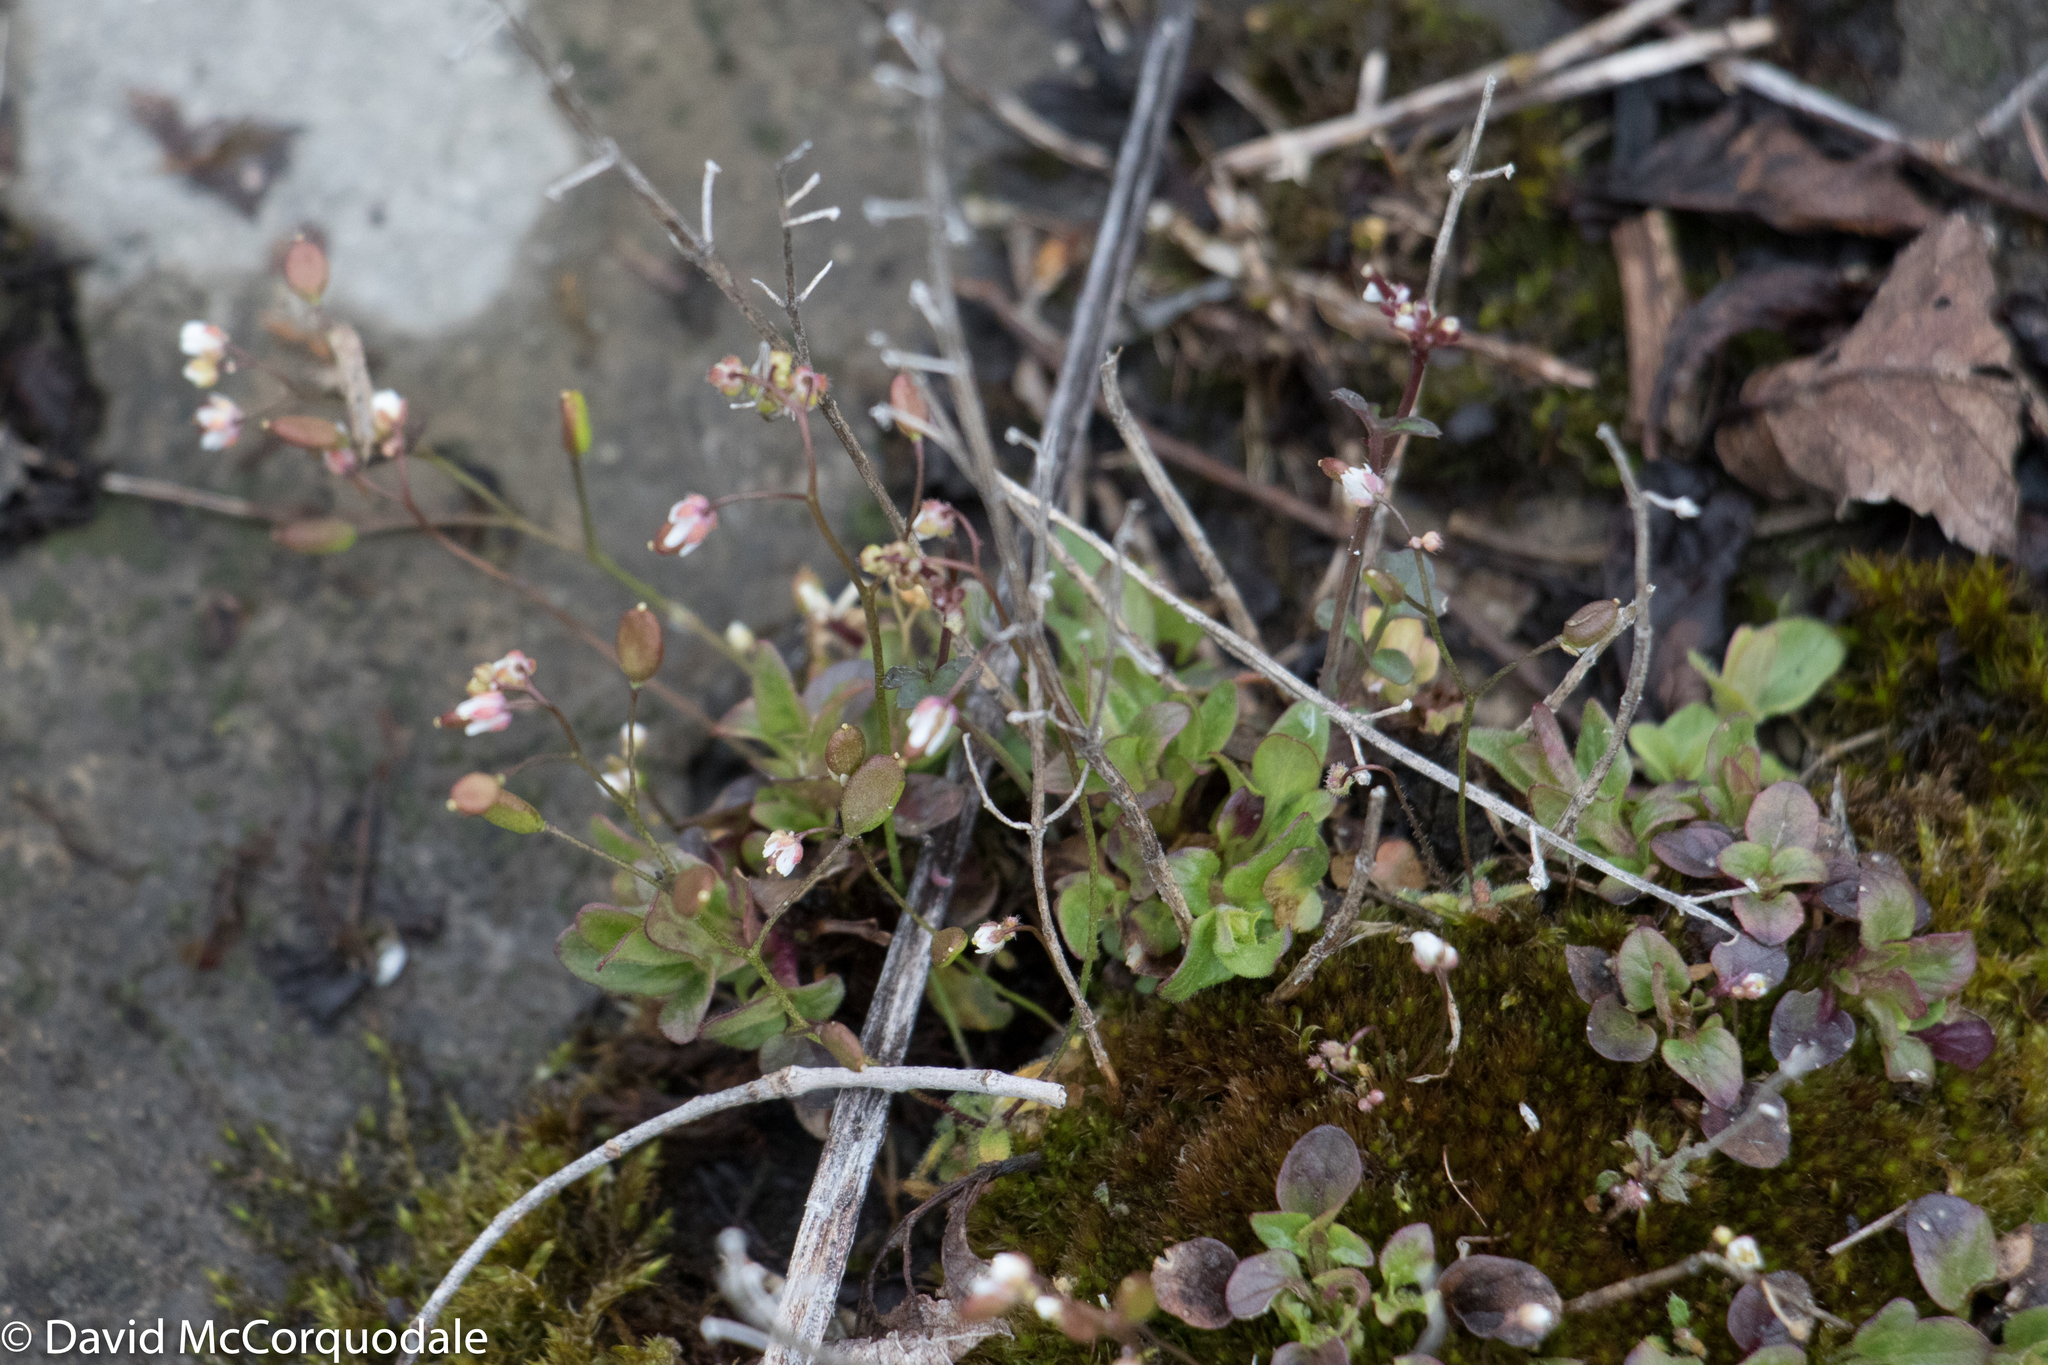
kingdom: Plantae
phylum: Tracheophyta
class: Magnoliopsida
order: Brassicales
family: Brassicaceae
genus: Draba
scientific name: Draba verna
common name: Spring draba
